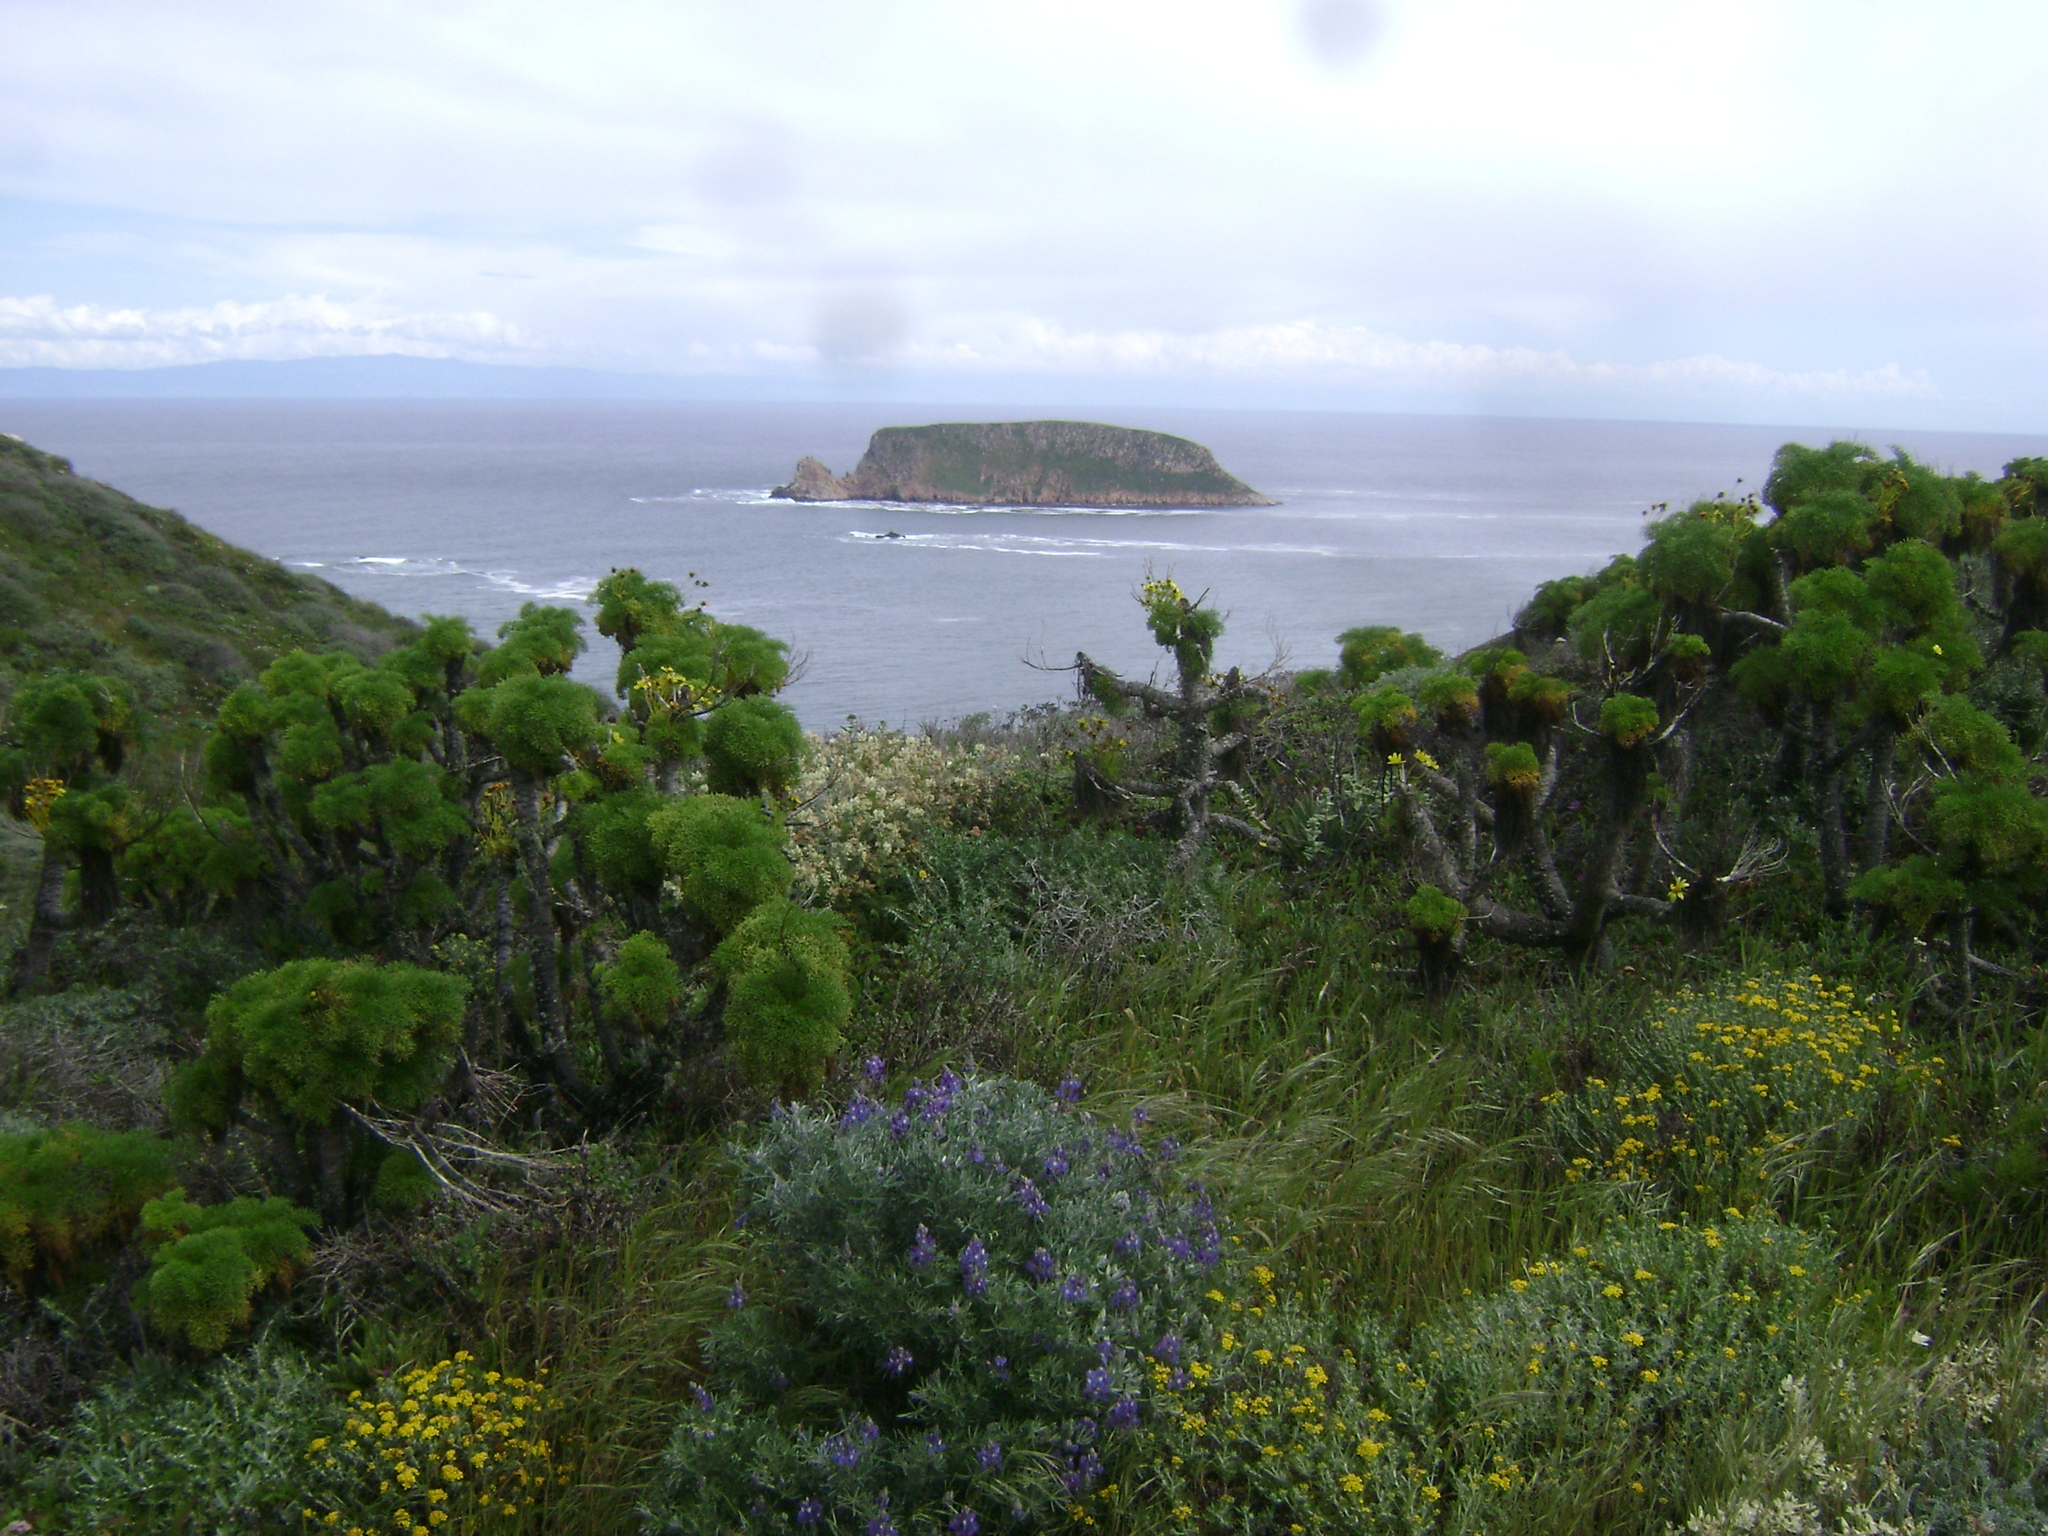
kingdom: Plantae
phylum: Tracheophyta
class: Magnoliopsida
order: Asterales
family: Asteraceae
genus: Coreopsis
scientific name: Coreopsis gigantea
